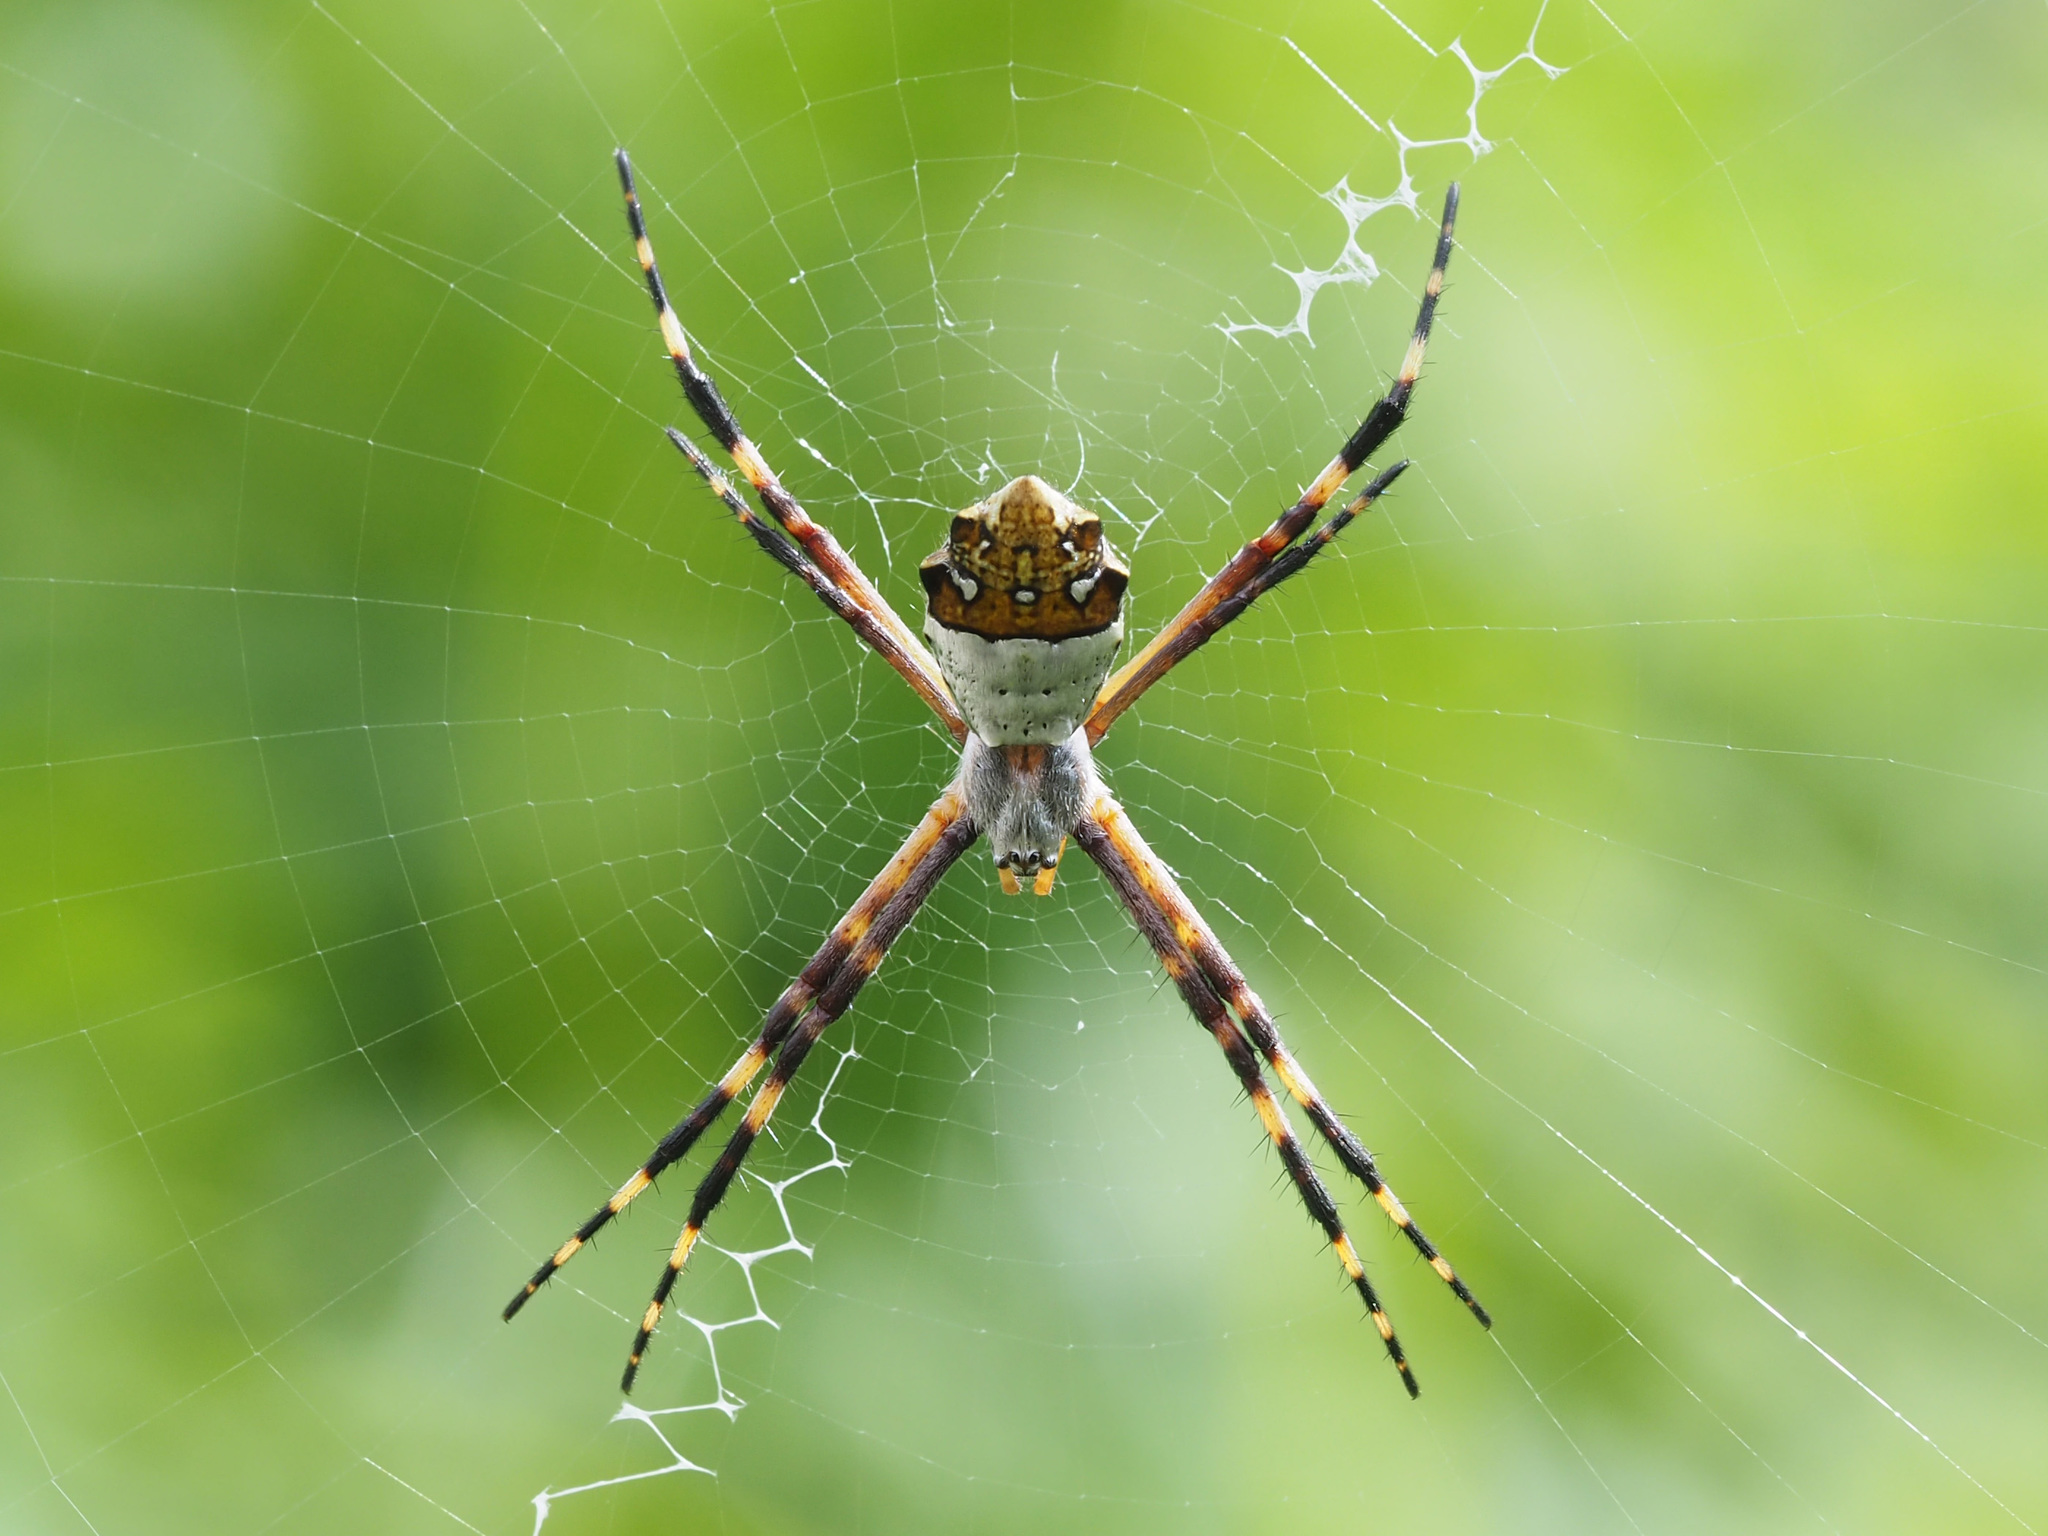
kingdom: Animalia
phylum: Arthropoda
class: Arachnida
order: Araneae
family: Araneidae
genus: Argiope
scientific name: Argiope argentata
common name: Orb weavers
